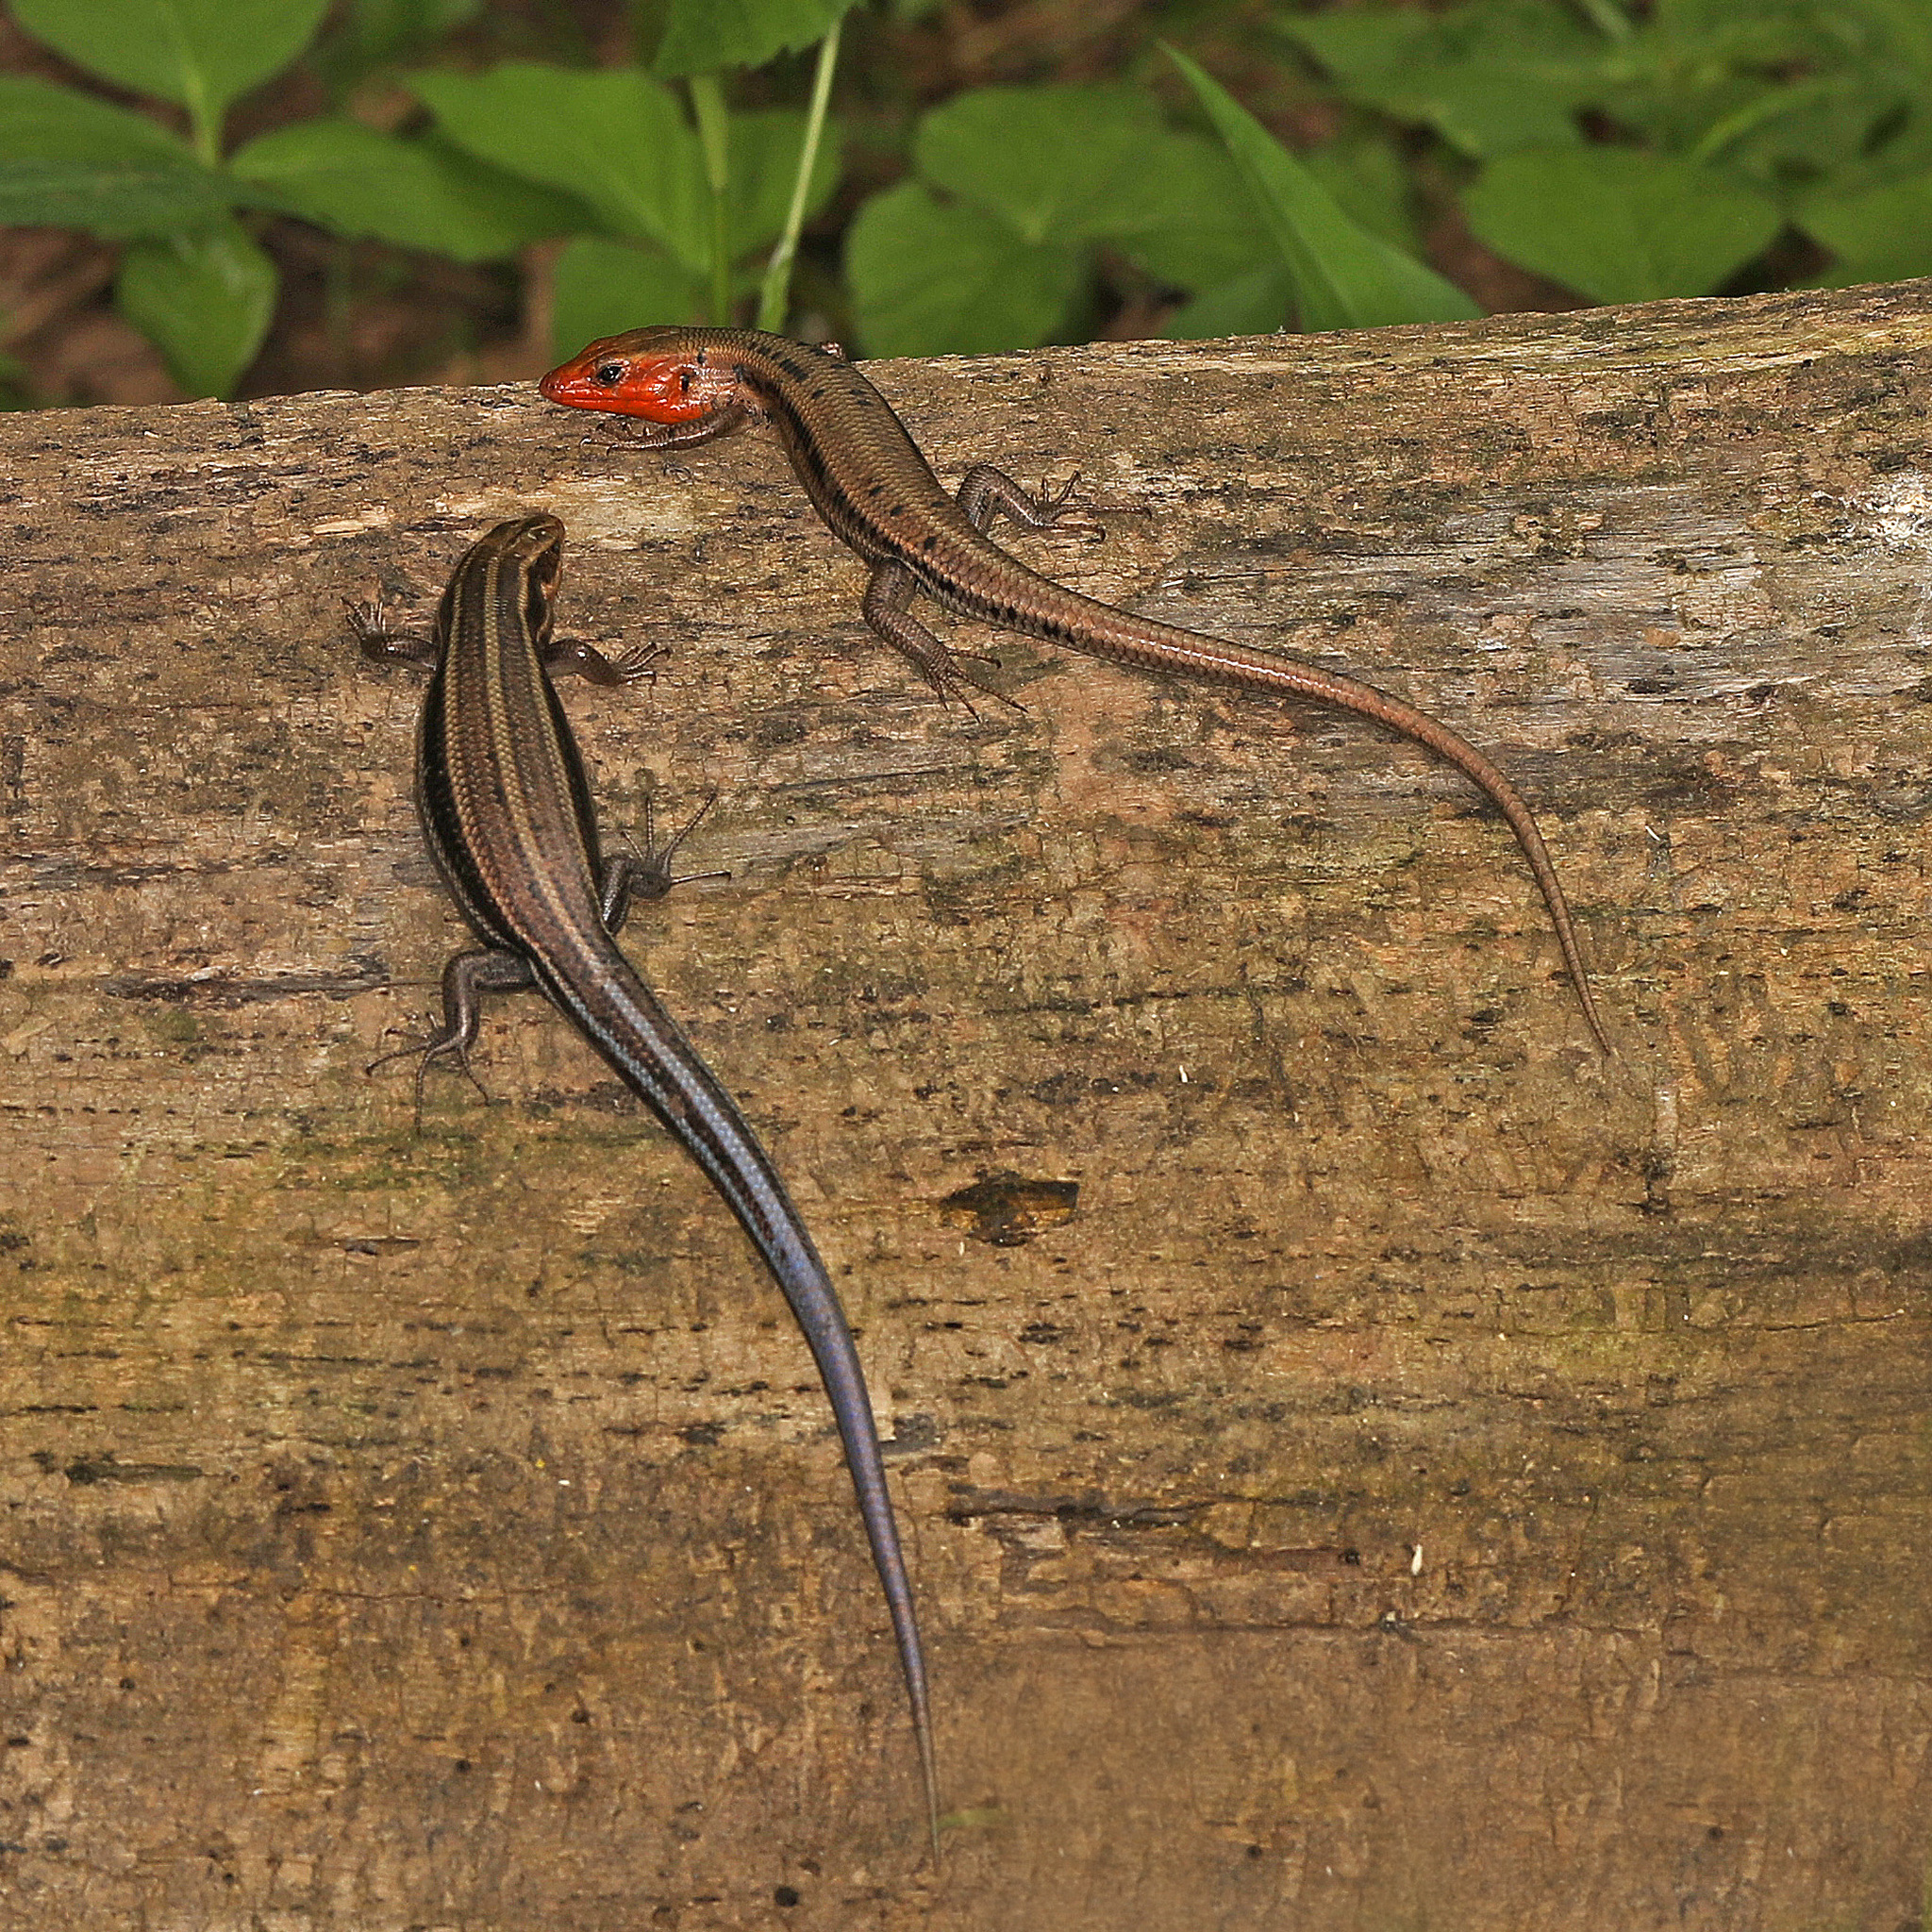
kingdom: Animalia
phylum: Chordata
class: Squamata
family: Scincidae
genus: Plestiodon
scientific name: Plestiodon fasciatus
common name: Five-lined skink
